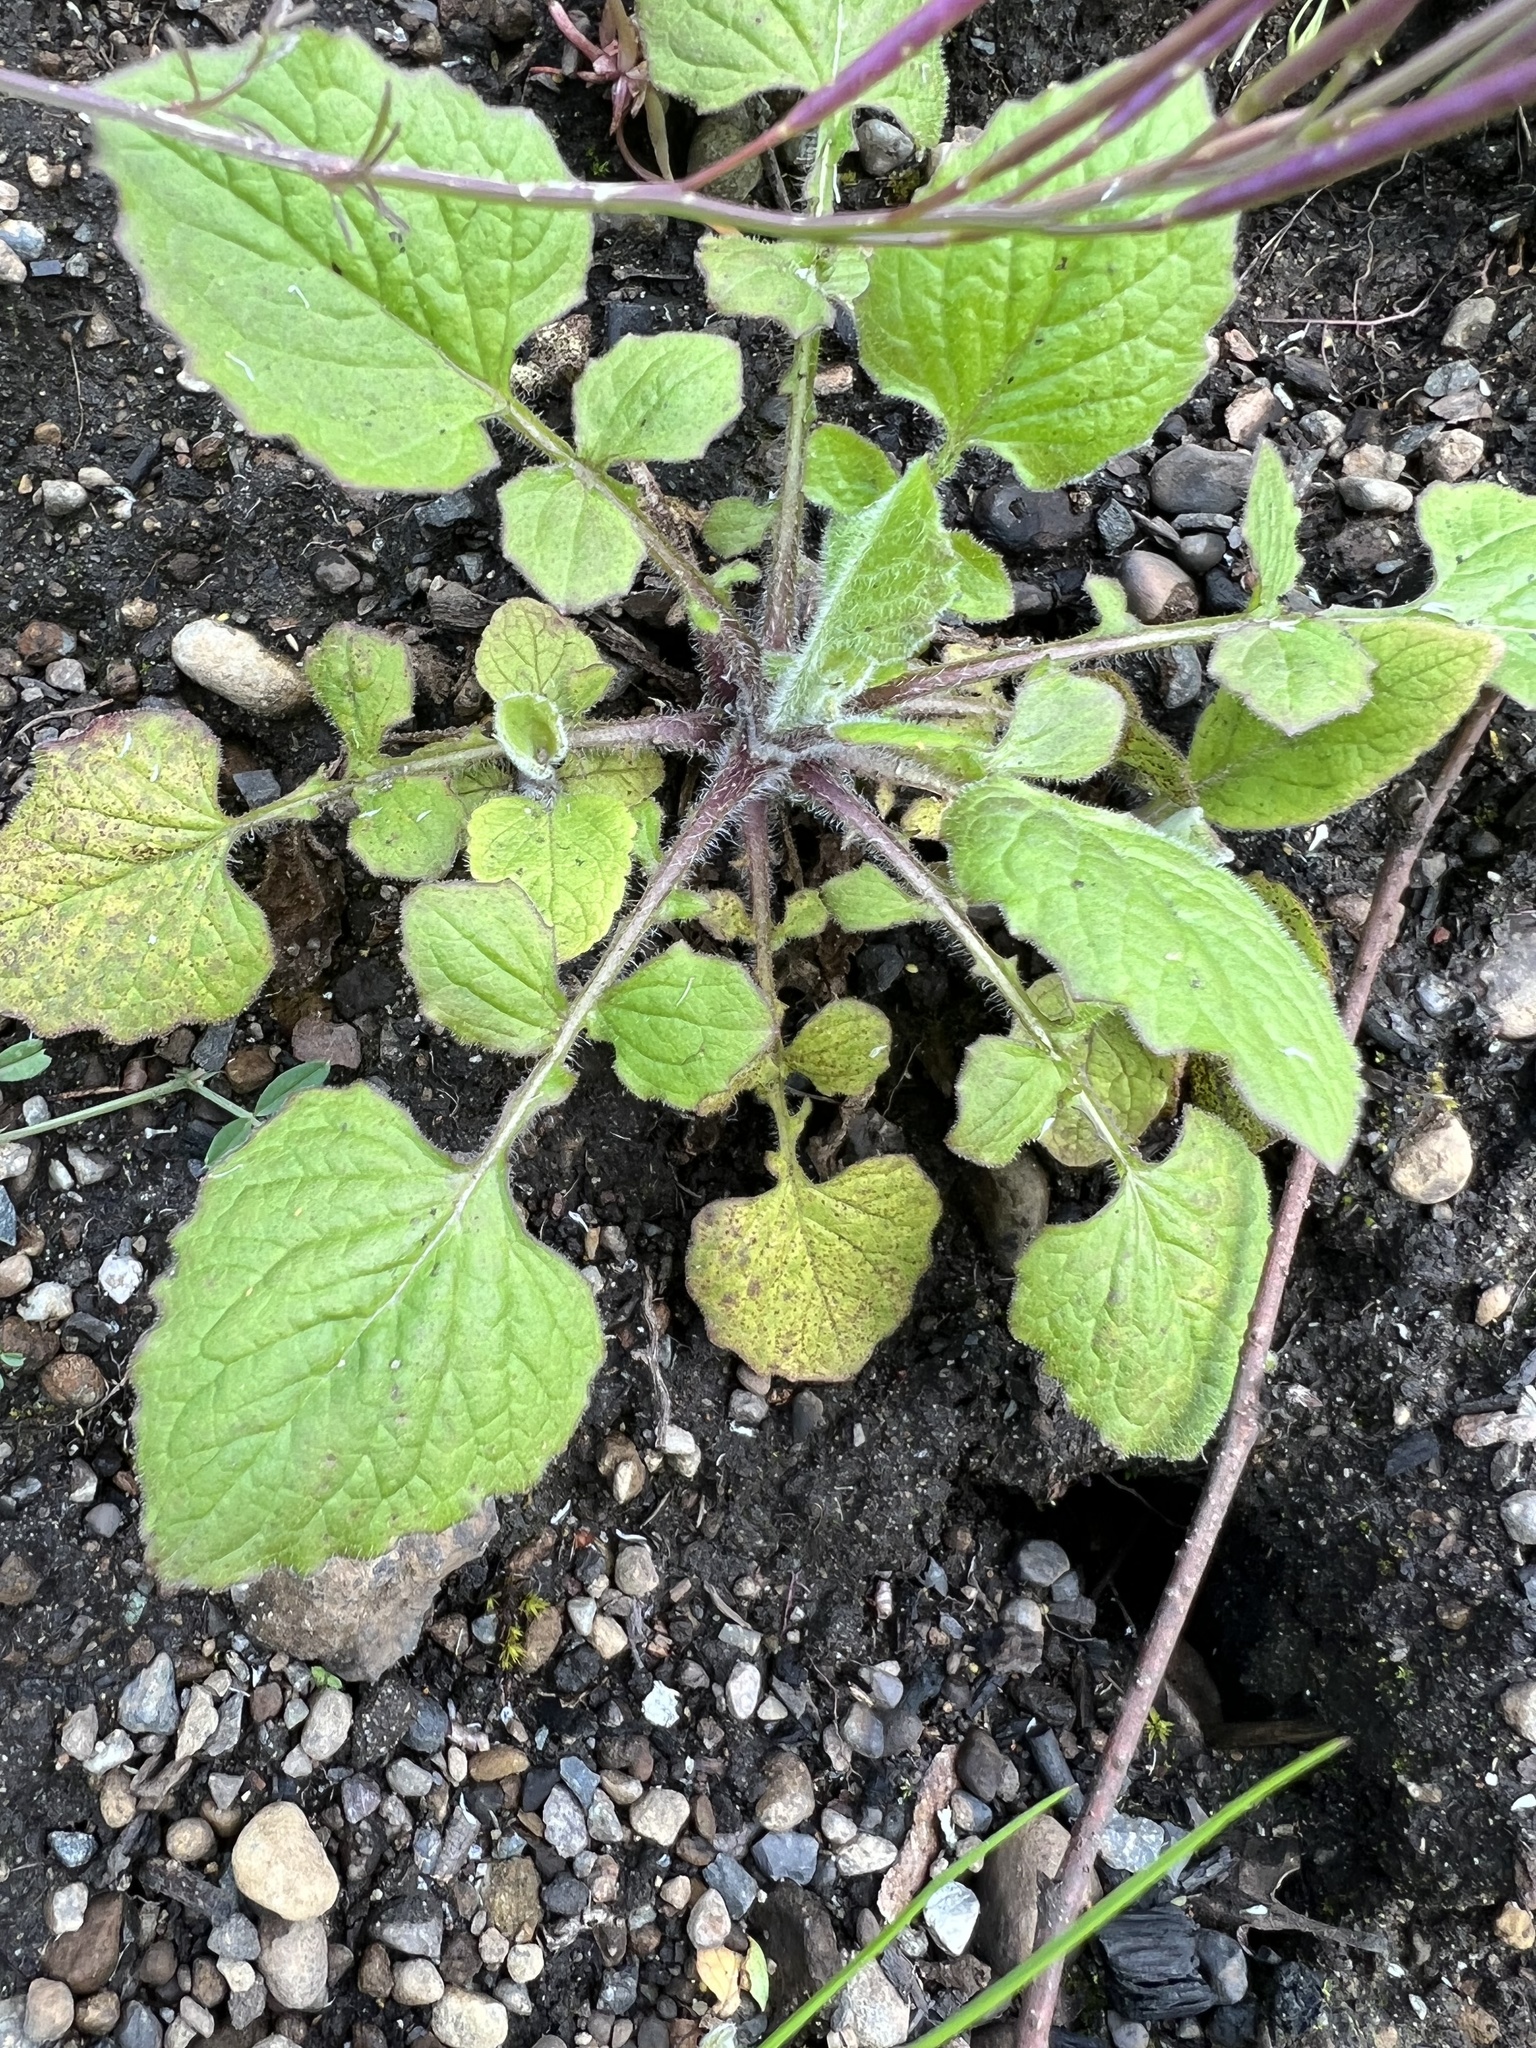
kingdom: Plantae
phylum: Tracheophyta
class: Magnoliopsida
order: Asterales
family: Asteraceae
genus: Lapsana
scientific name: Lapsana communis
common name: Nipplewort
